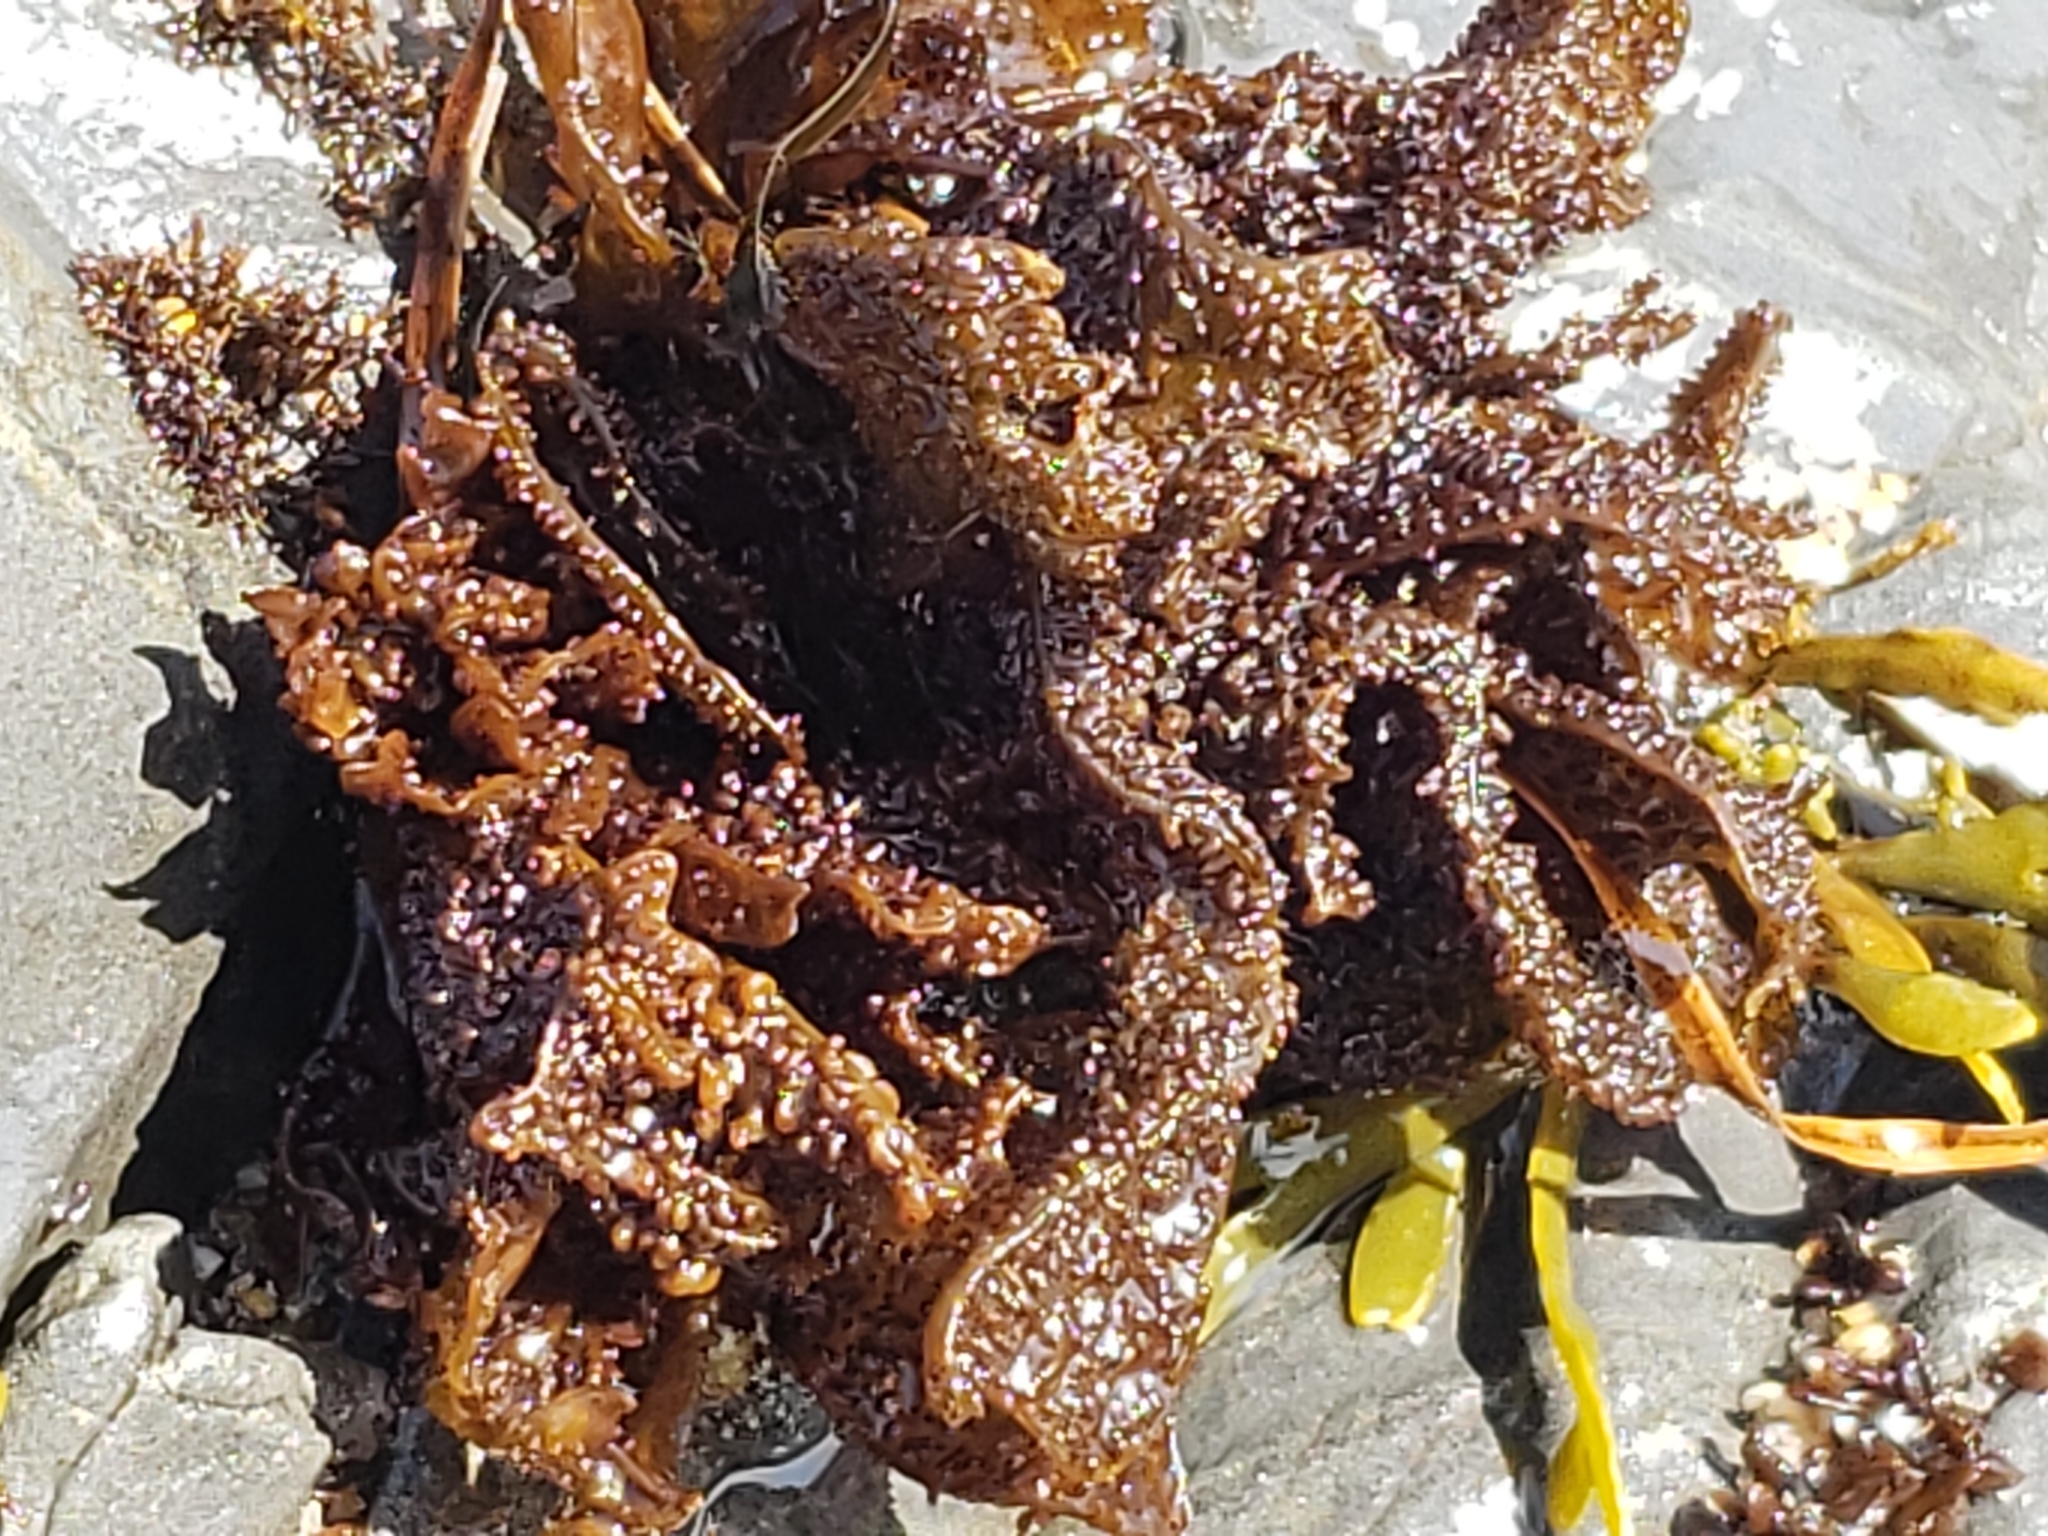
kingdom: Plantae
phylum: Rhodophyta
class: Florideophyceae
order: Gigartinales
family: Phyllophoraceae
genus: Mastocarpus
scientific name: Mastocarpus papillatus
